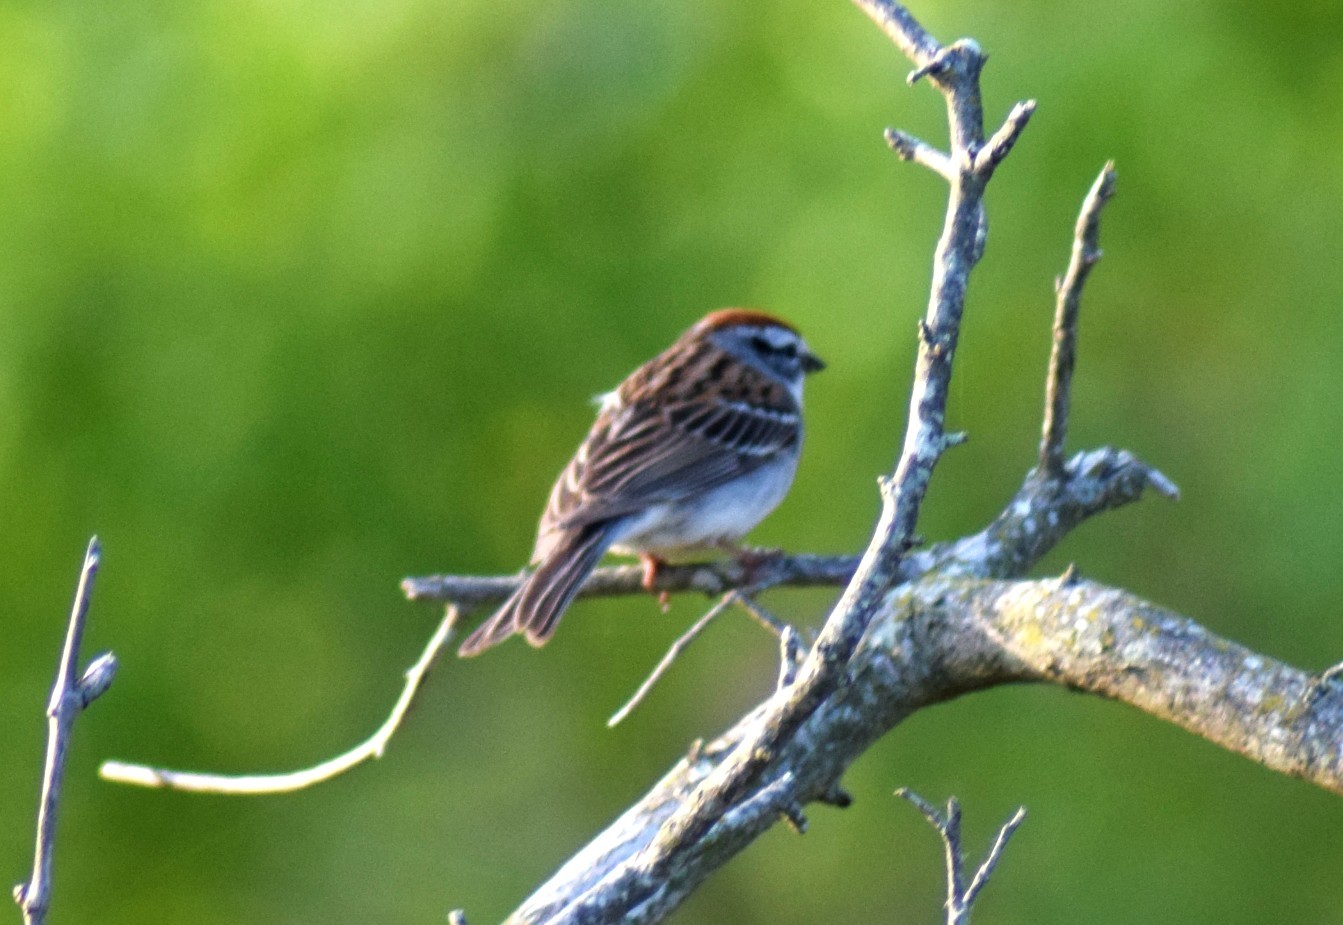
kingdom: Animalia
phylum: Chordata
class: Aves
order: Passeriformes
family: Passerellidae
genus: Spizella
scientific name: Spizella passerina
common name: Chipping sparrow
